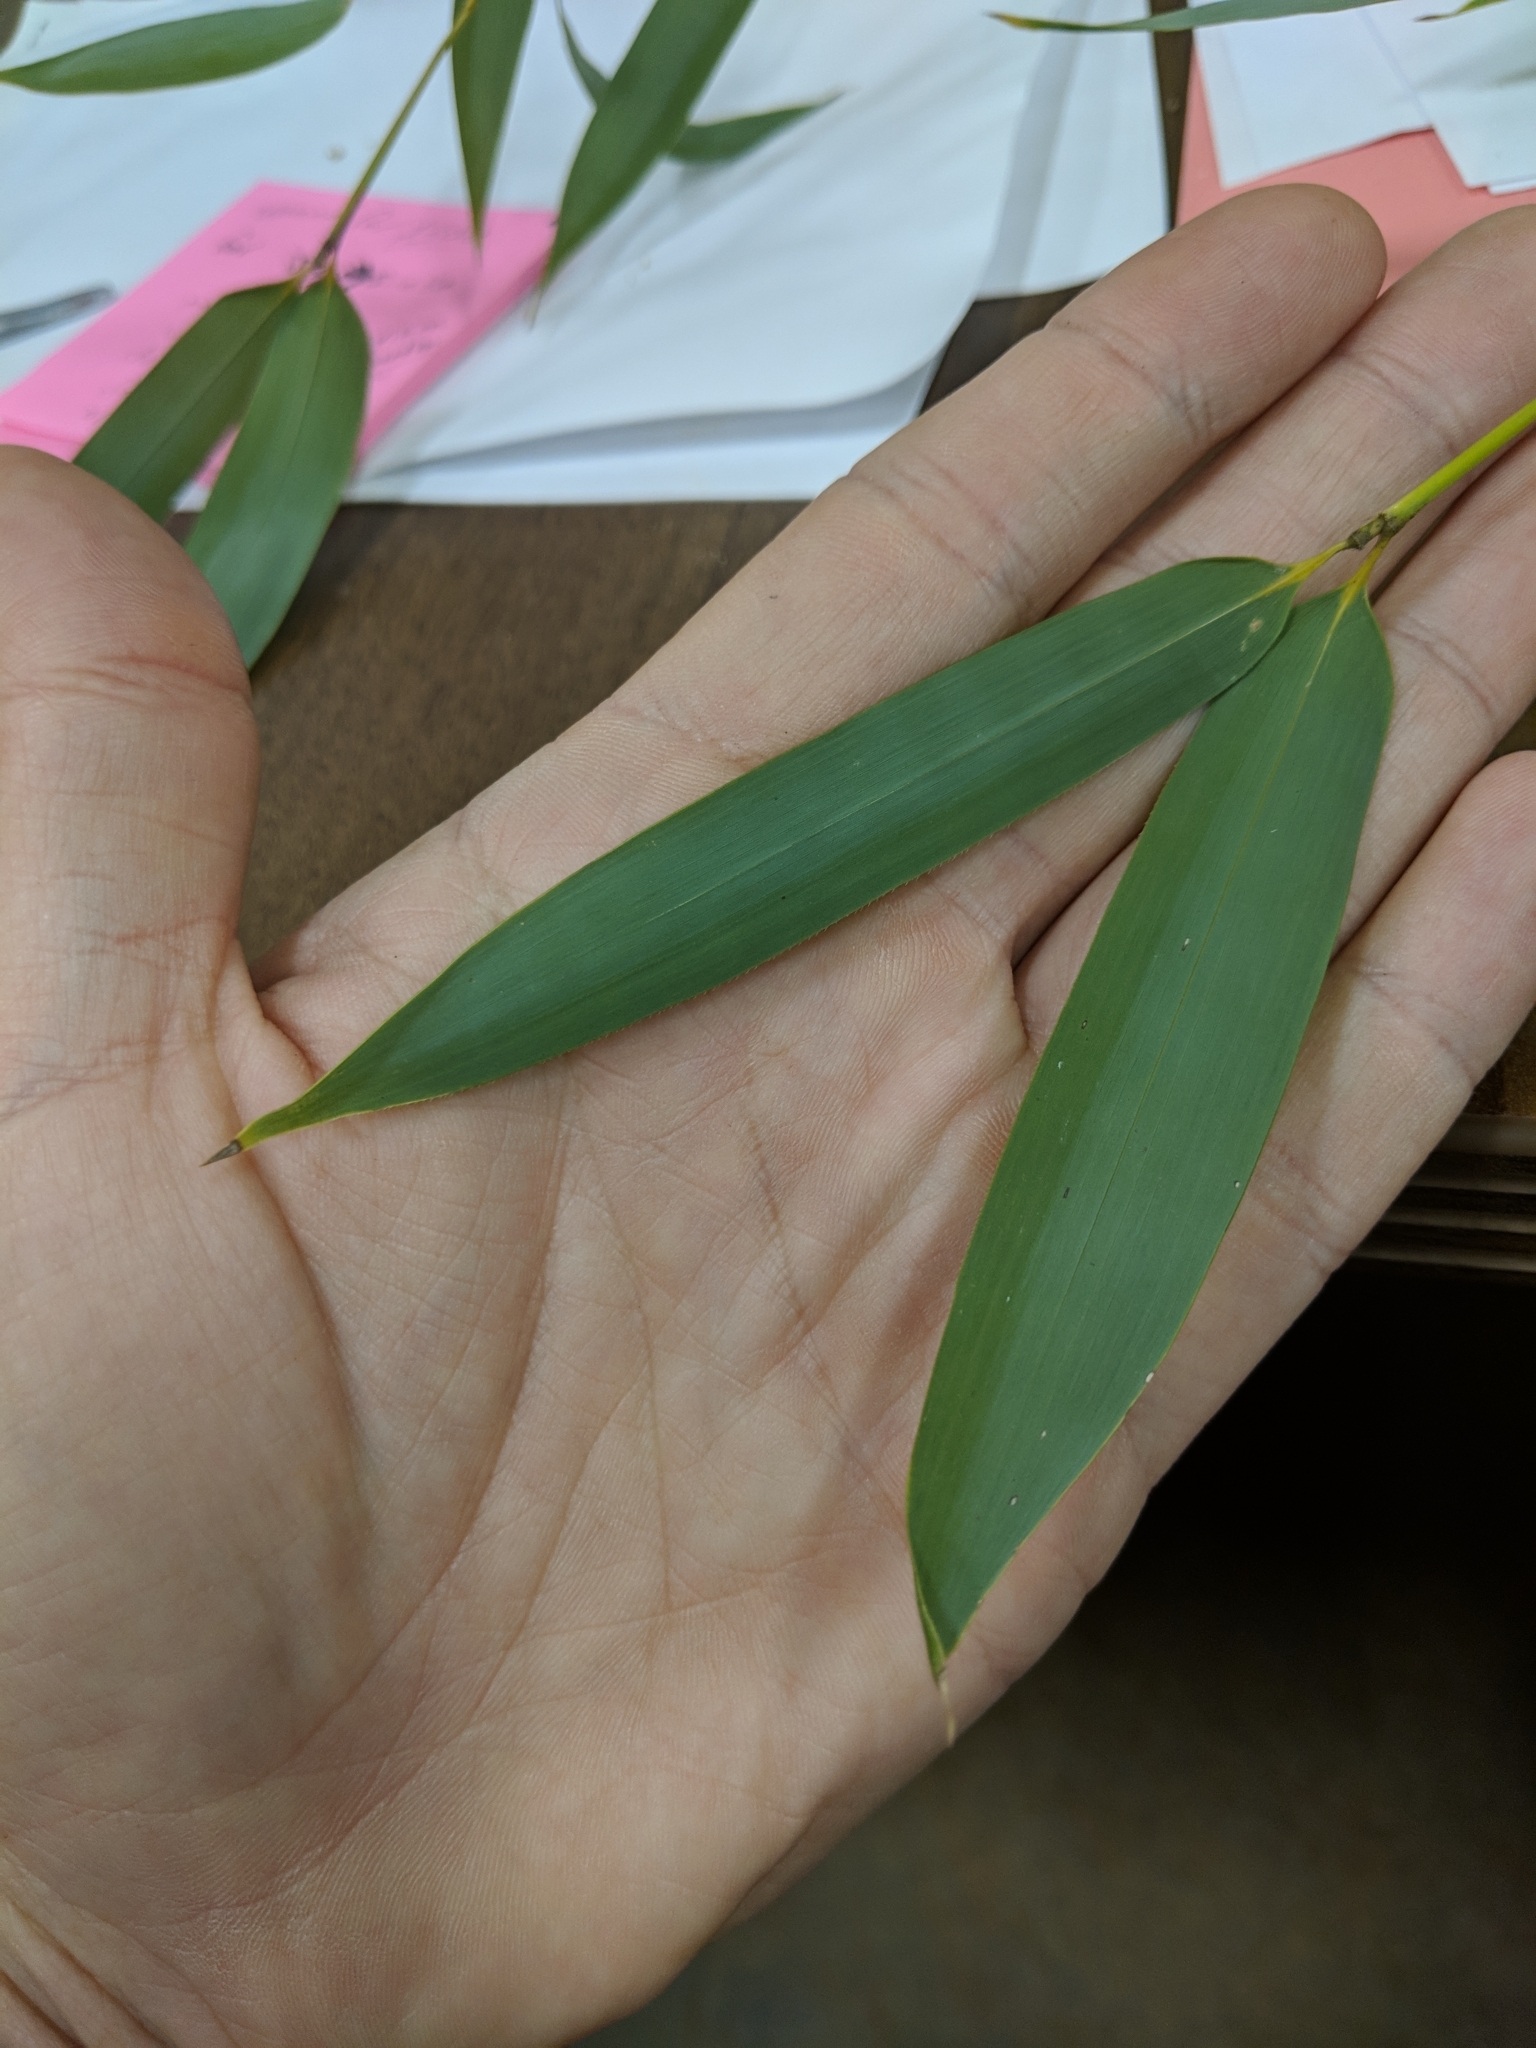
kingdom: Plantae
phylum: Tracheophyta
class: Liliopsida
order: Poales
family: Poaceae
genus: Phyllostachys
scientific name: Phyllostachys aureosulcata
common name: Yellow groove bamboo
